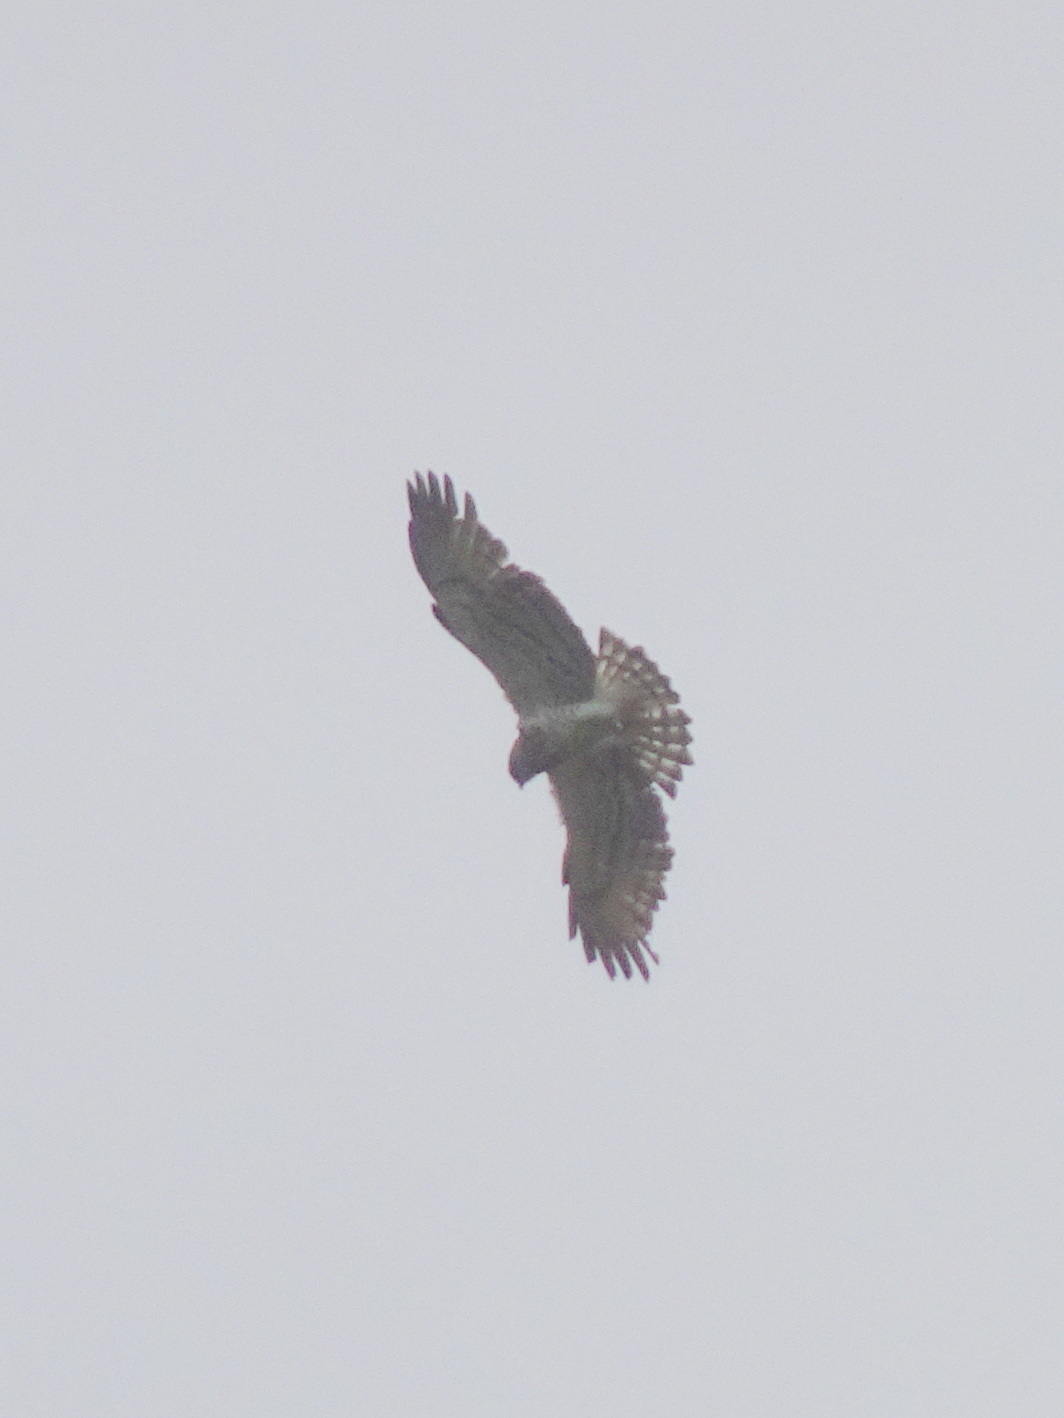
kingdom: Animalia
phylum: Chordata
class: Aves
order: Accipitriformes
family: Accipitridae
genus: Circaetus
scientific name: Circaetus gallicus
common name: Short-toed snake eagle
